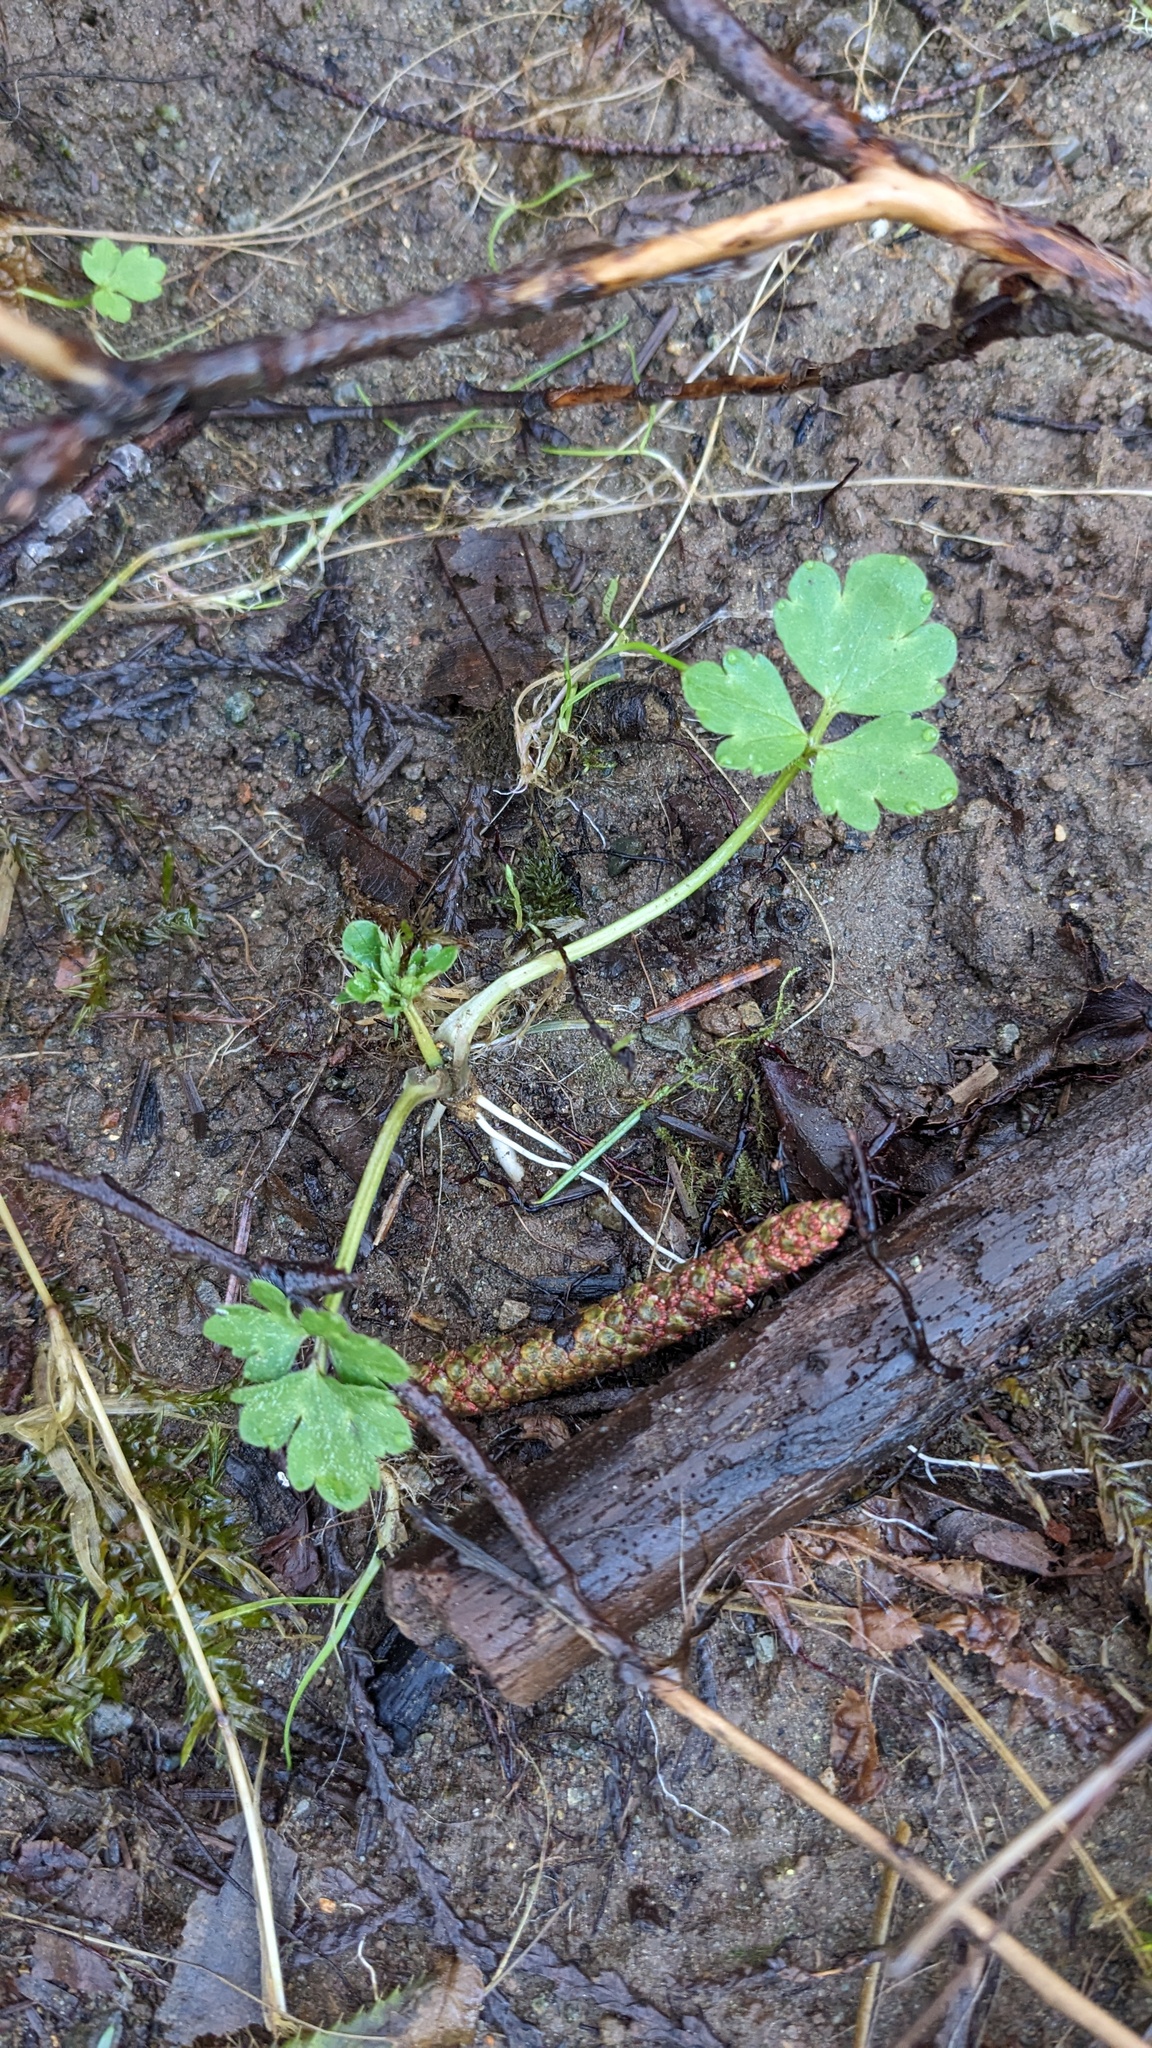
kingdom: Plantae
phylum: Tracheophyta
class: Magnoliopsida
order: Ranunculales
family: Ranunculaceae
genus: Ranunculus
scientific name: Ranunculus repens
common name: Creeping buttercup
